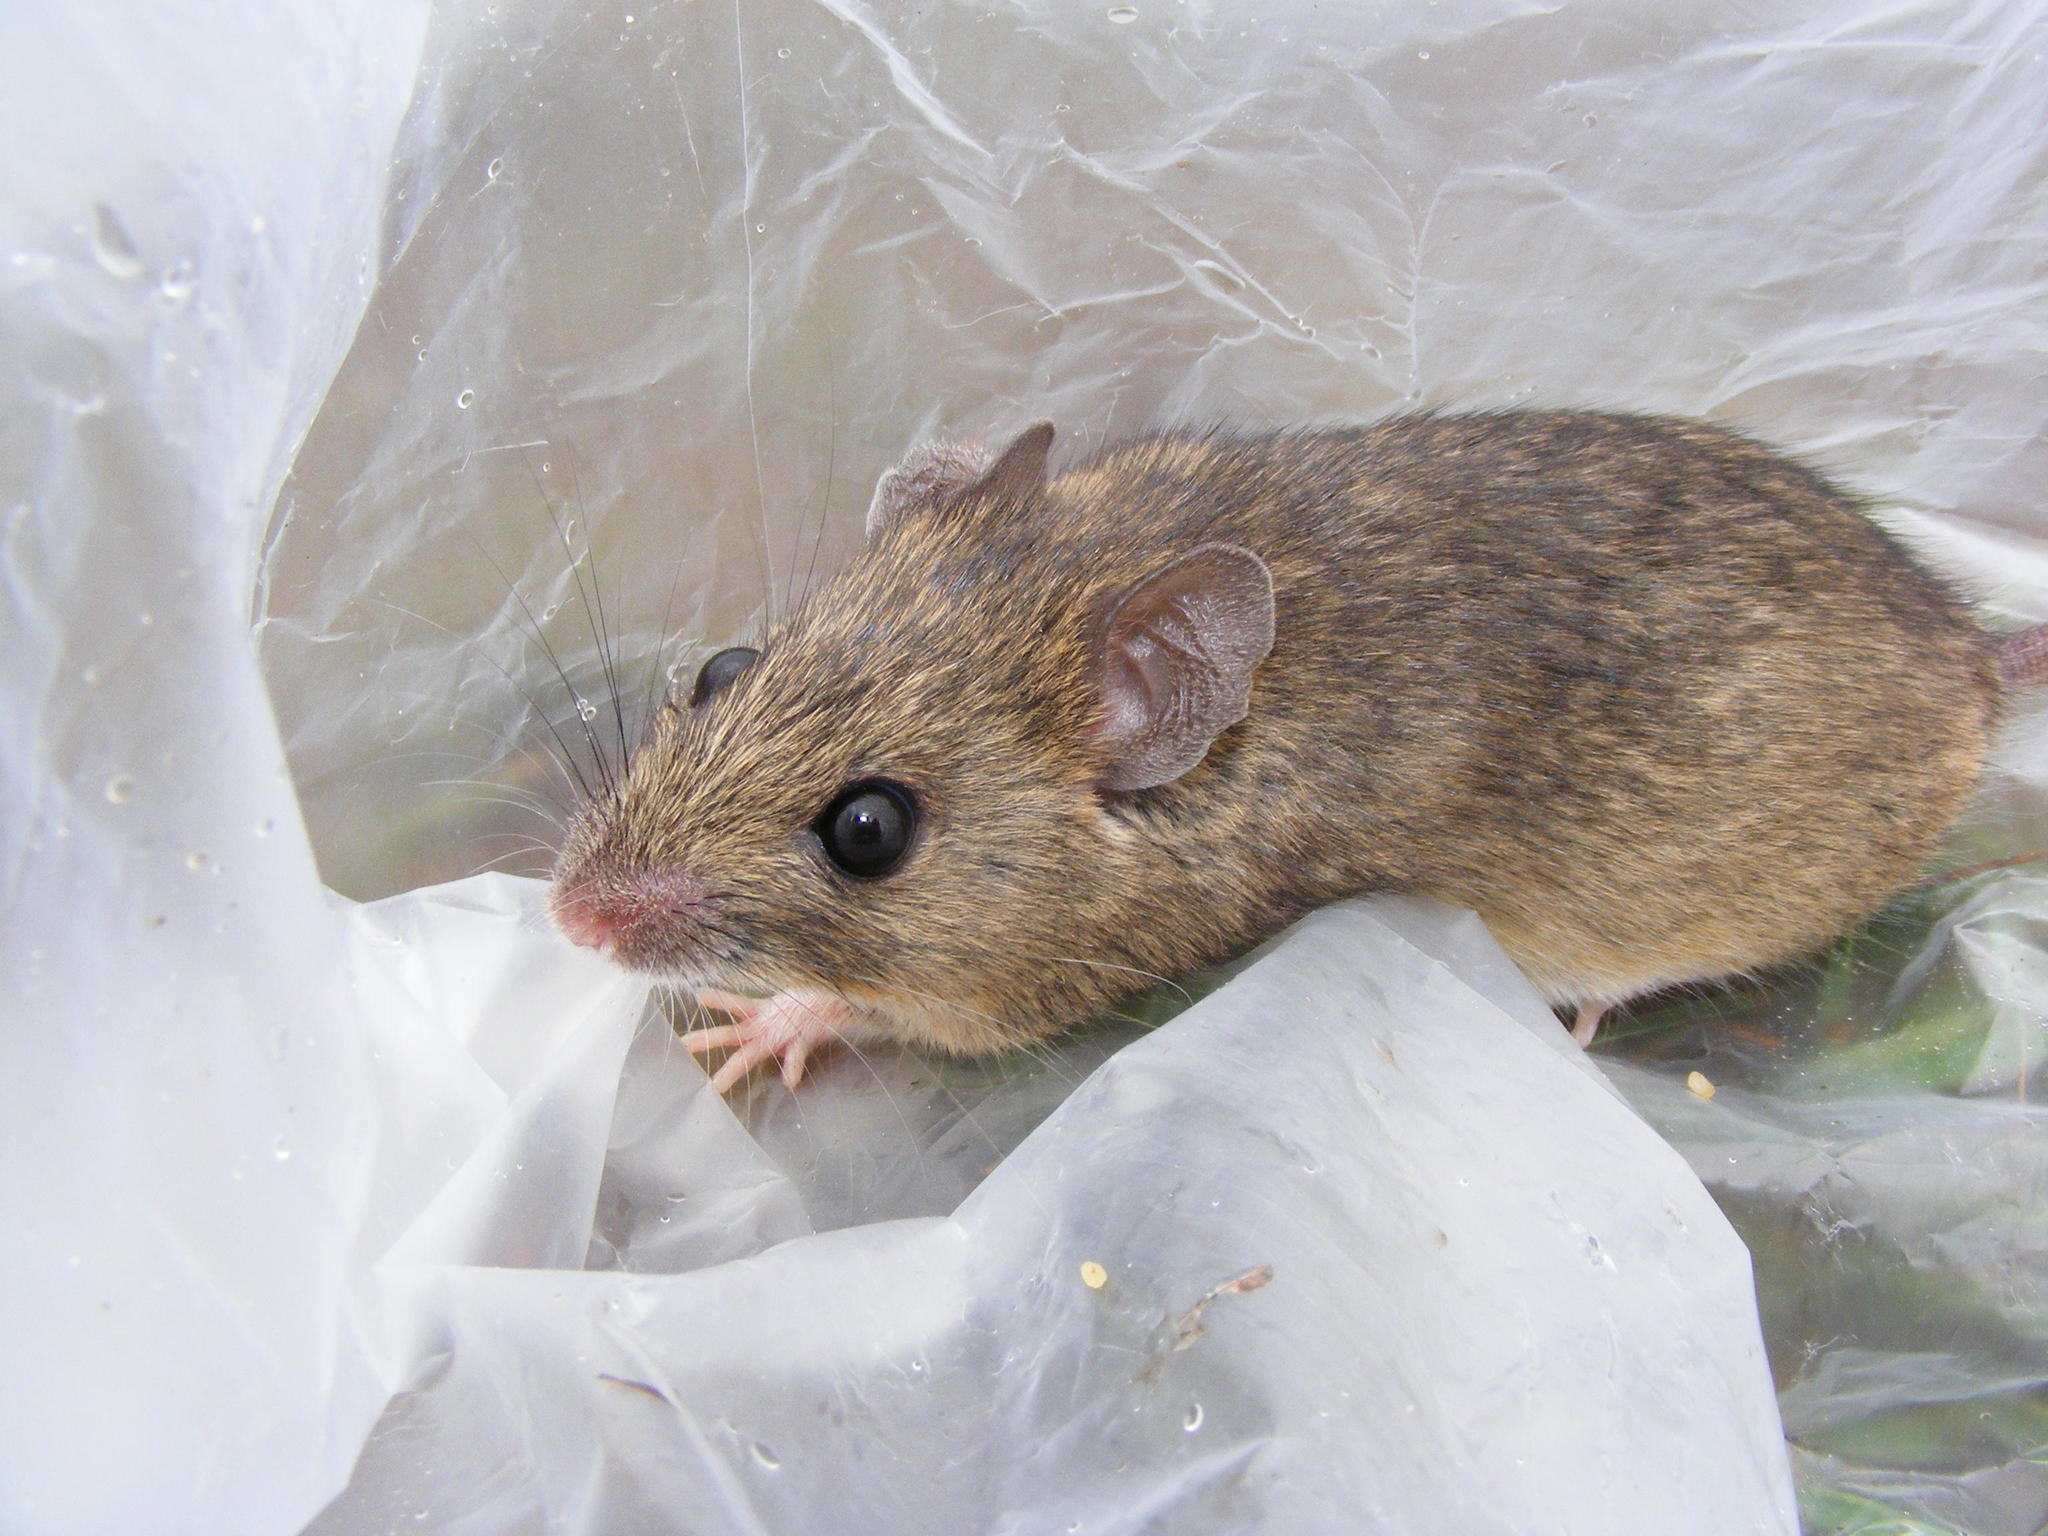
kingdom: Animalia
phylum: Chordata
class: Mammalia
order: Rodentia
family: Muridae
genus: Mastomys
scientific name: Mastomys natalensis
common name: Natal mastomys
